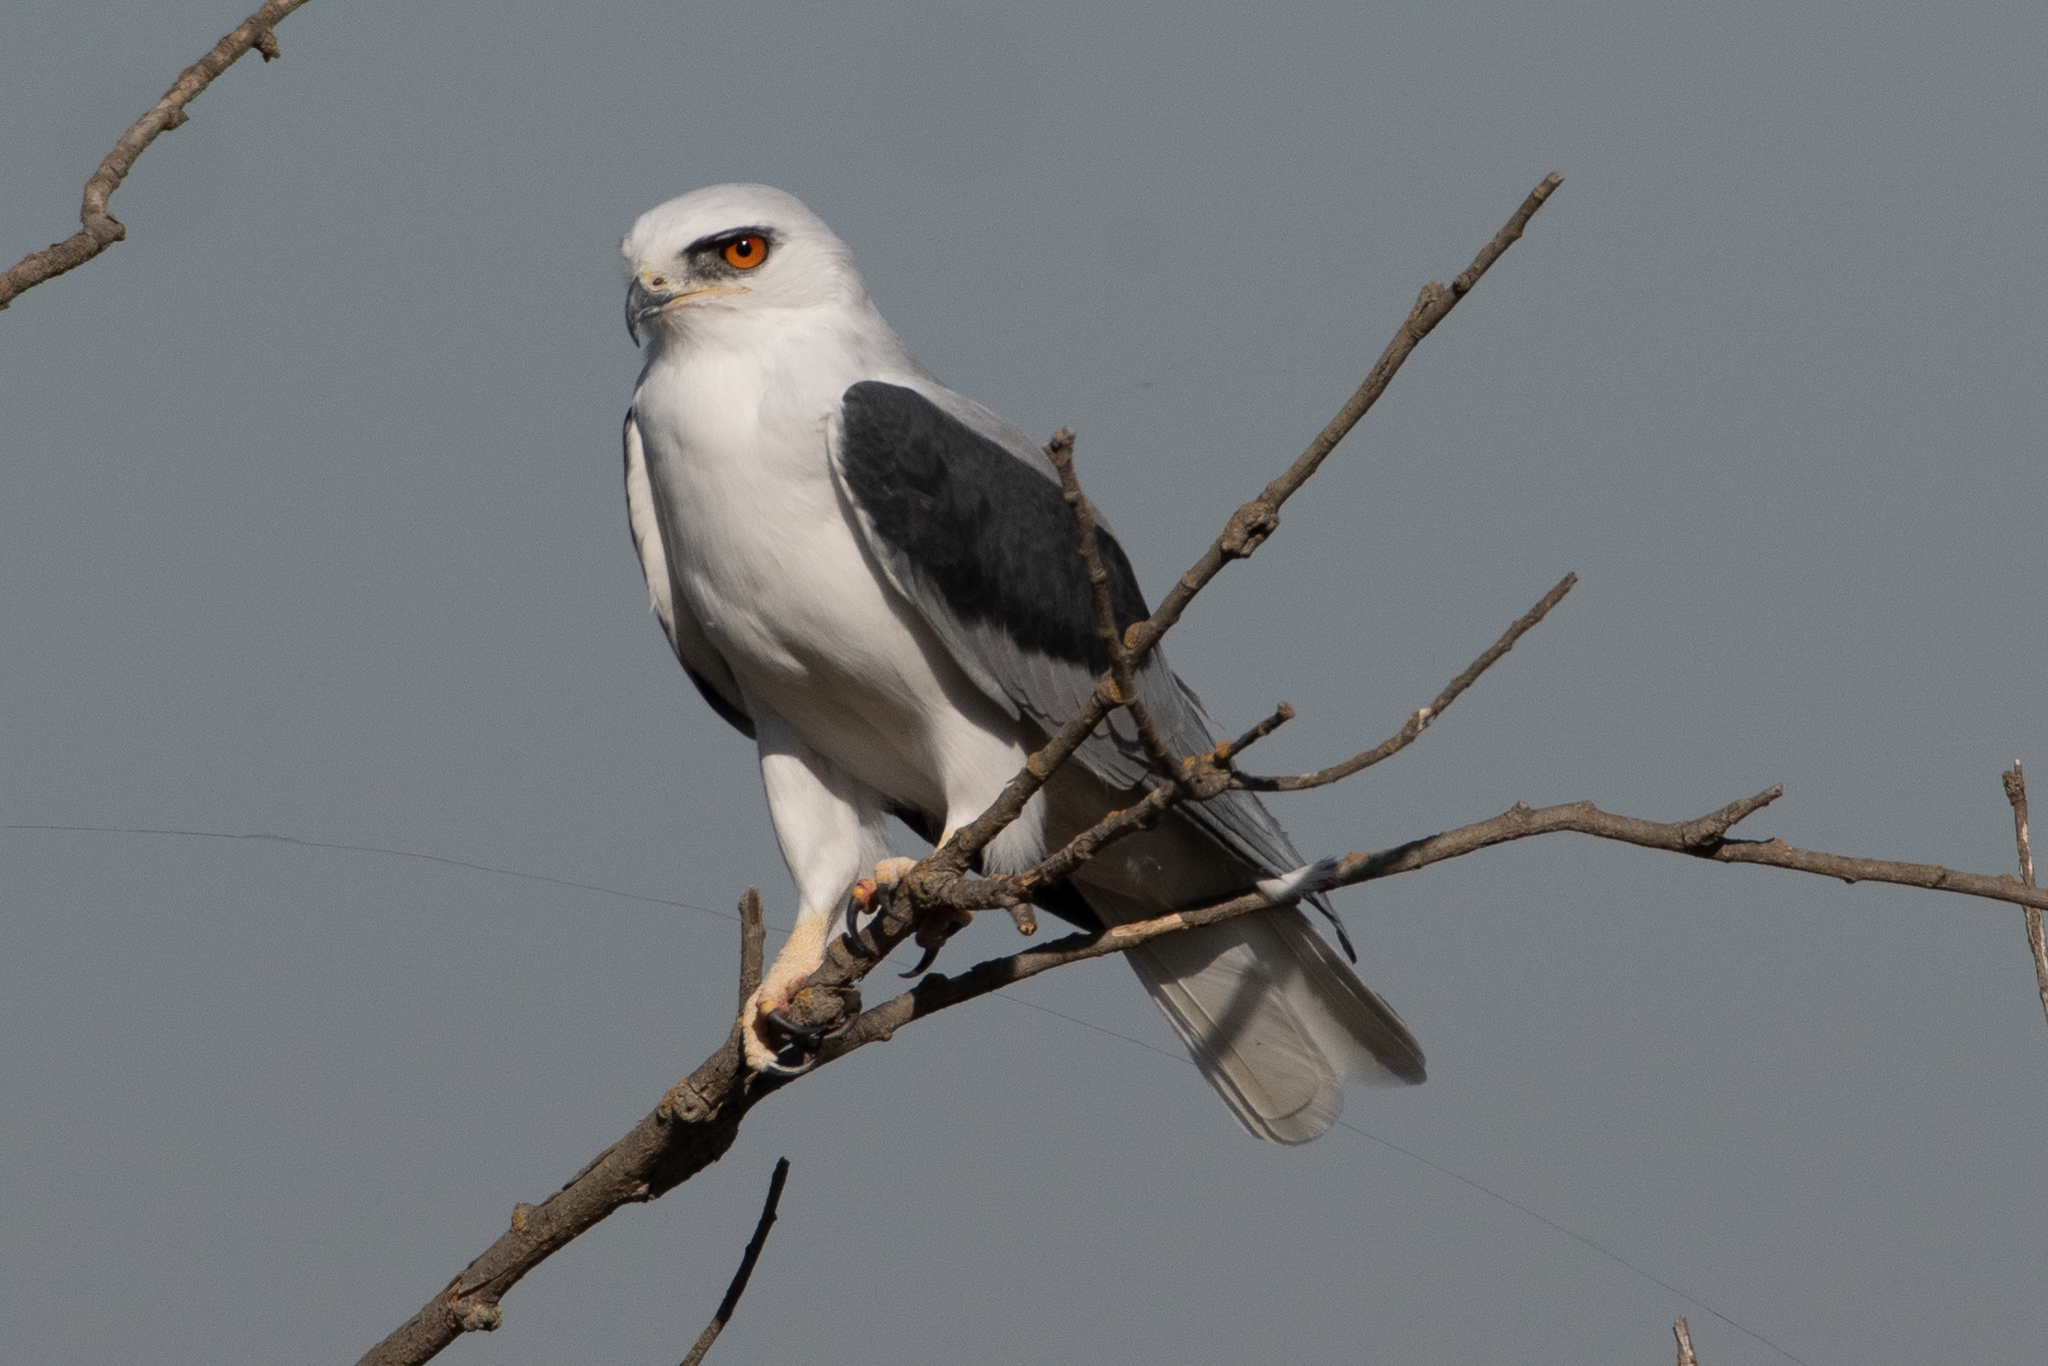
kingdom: Animalia
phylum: Chordata
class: Aves
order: Accipitriformes
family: Accipitridae
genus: Elanus
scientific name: Elanus leucurus
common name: White-tailed kite
